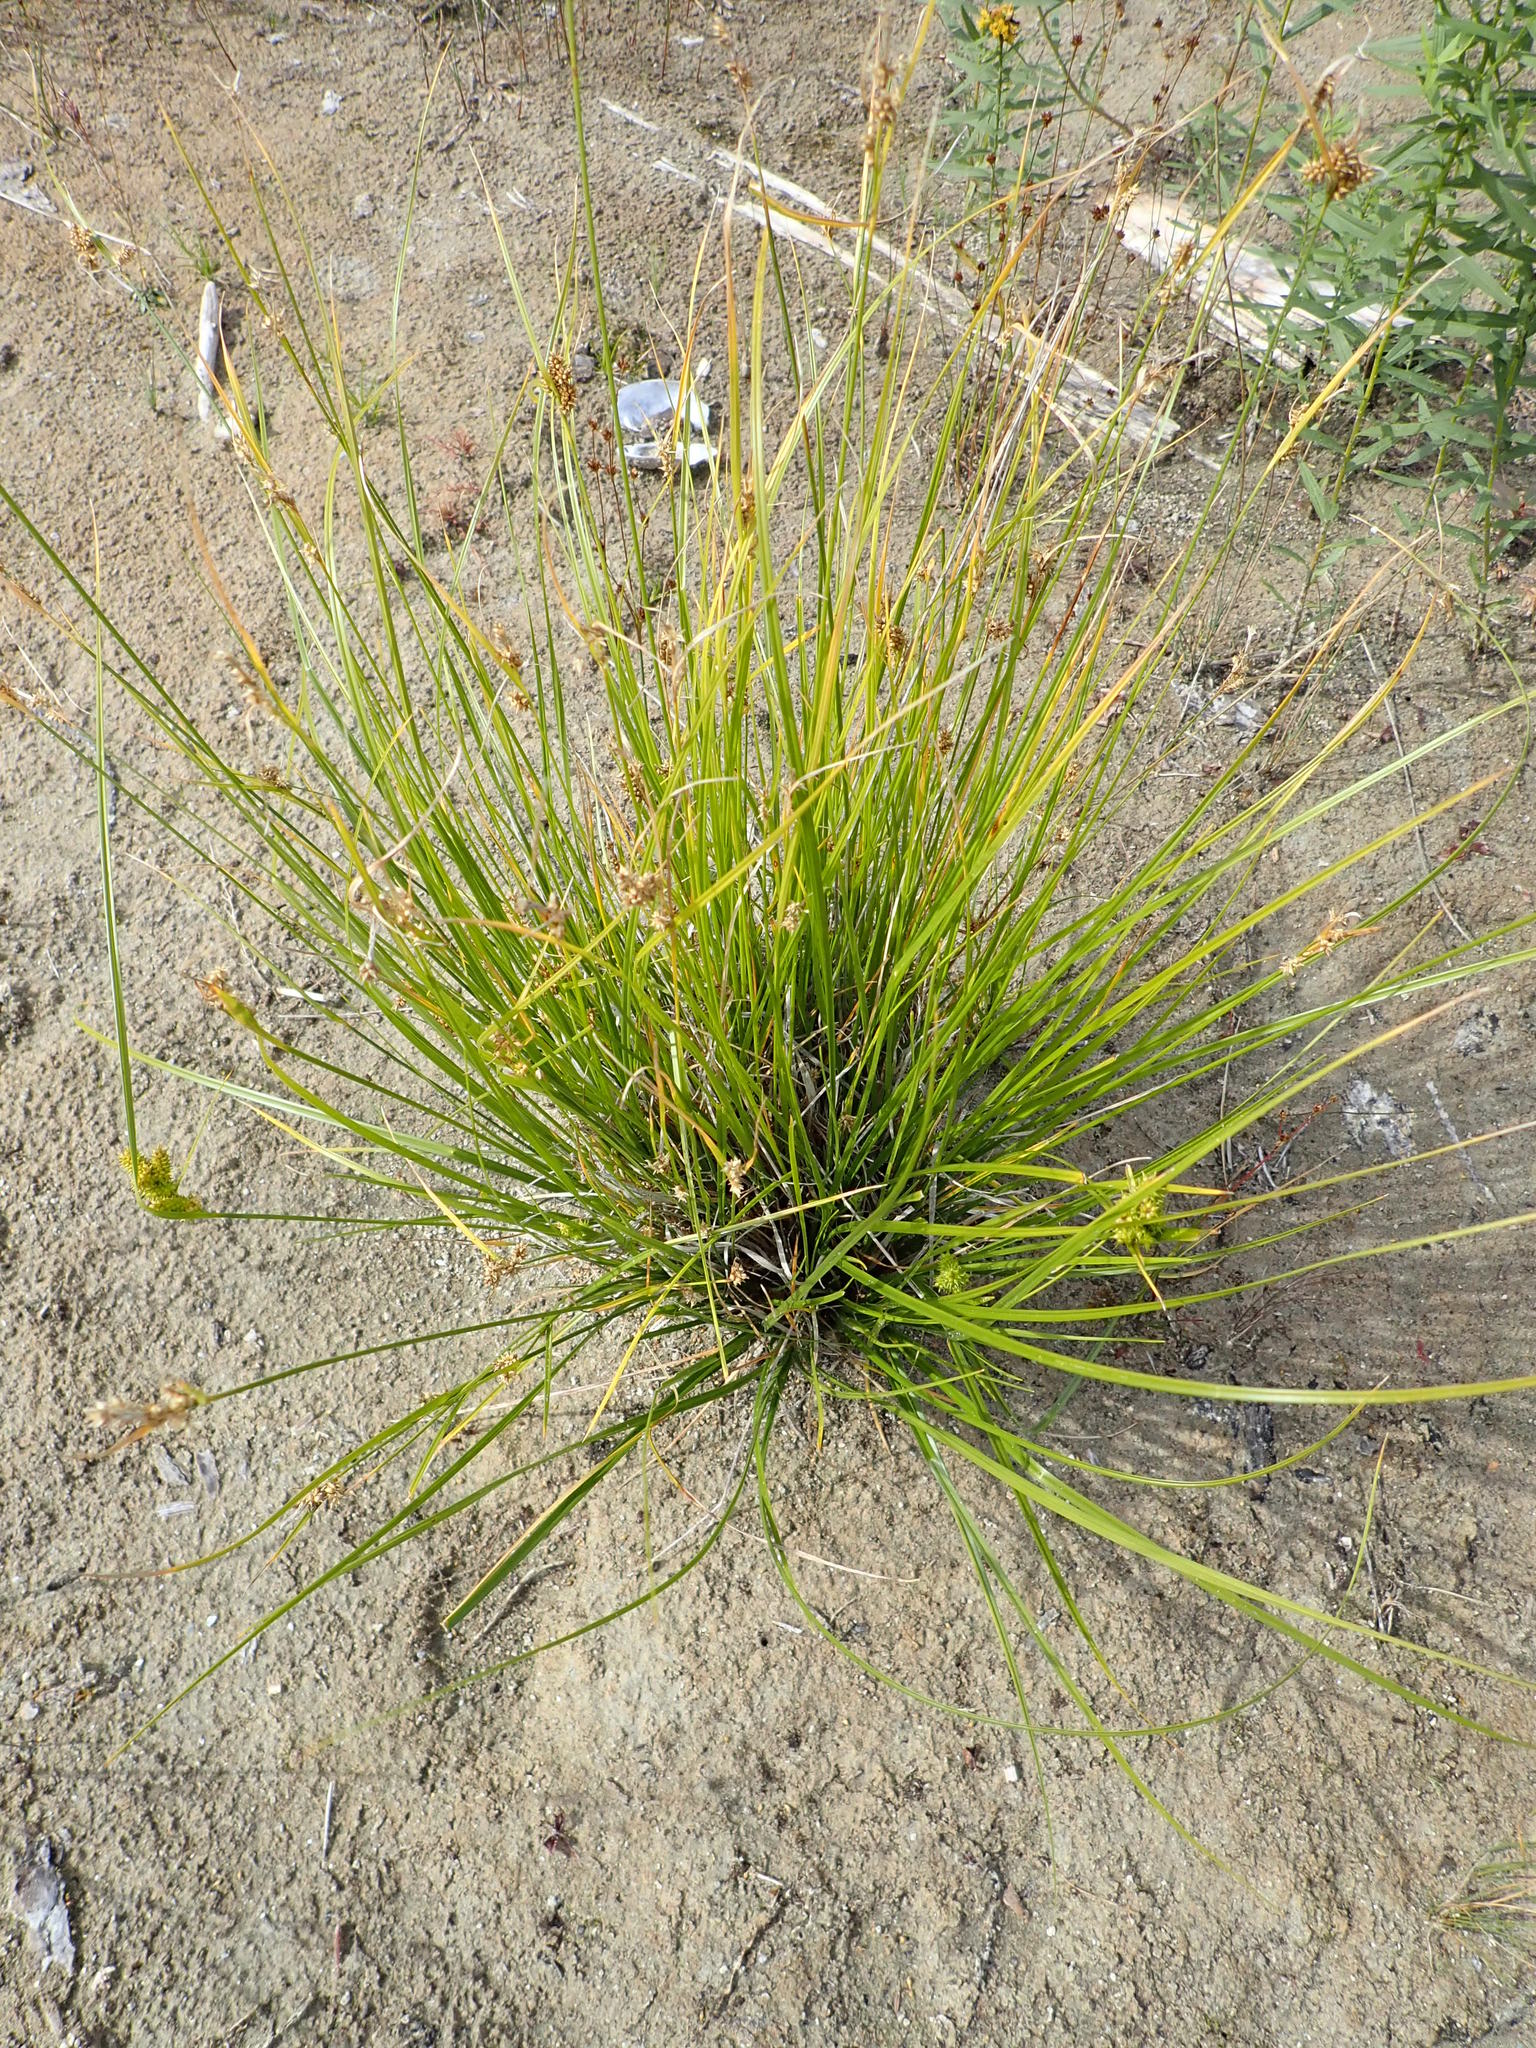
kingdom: Plantae
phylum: Tracheophyta
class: Liliopsida
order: Poales
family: Cyperaceae
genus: Carex
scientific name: Carex
